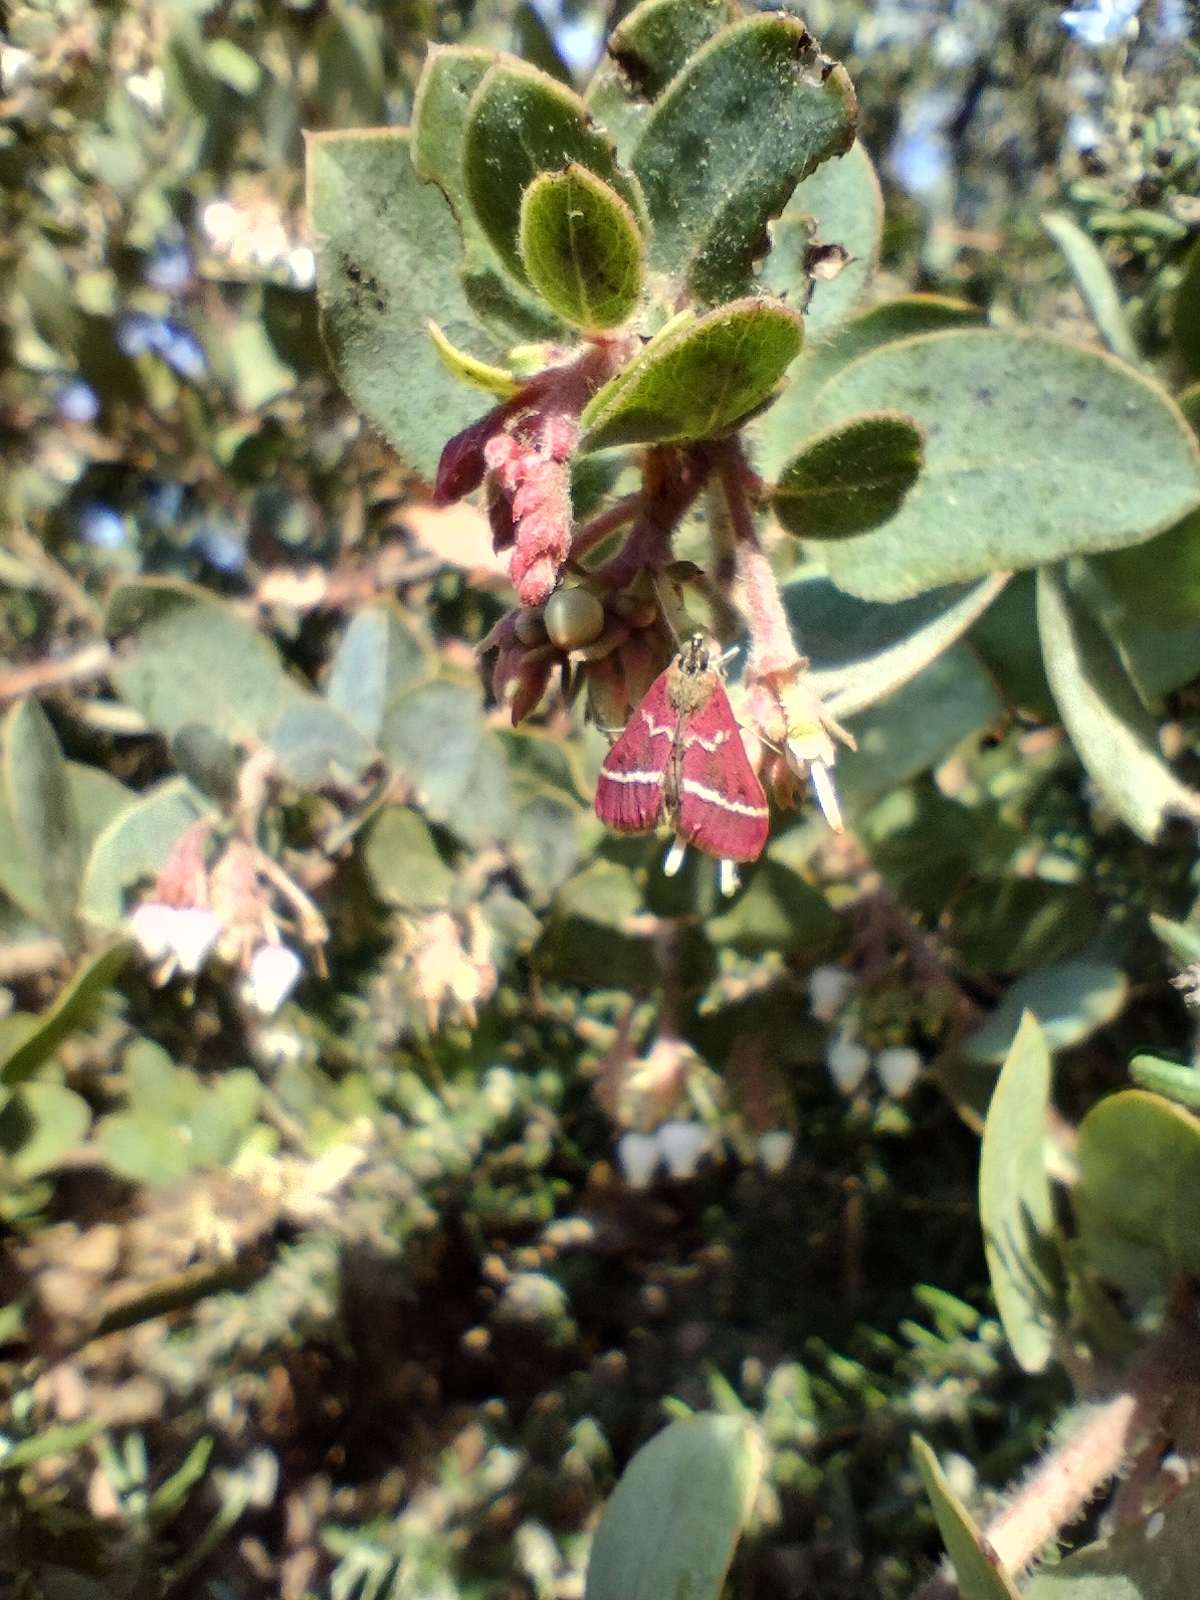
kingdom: Animalia
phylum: Arthropoda
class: Insecta
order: Lepidoptera
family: Crambidae
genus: Pyrausta
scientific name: Pyrausta volupialis
